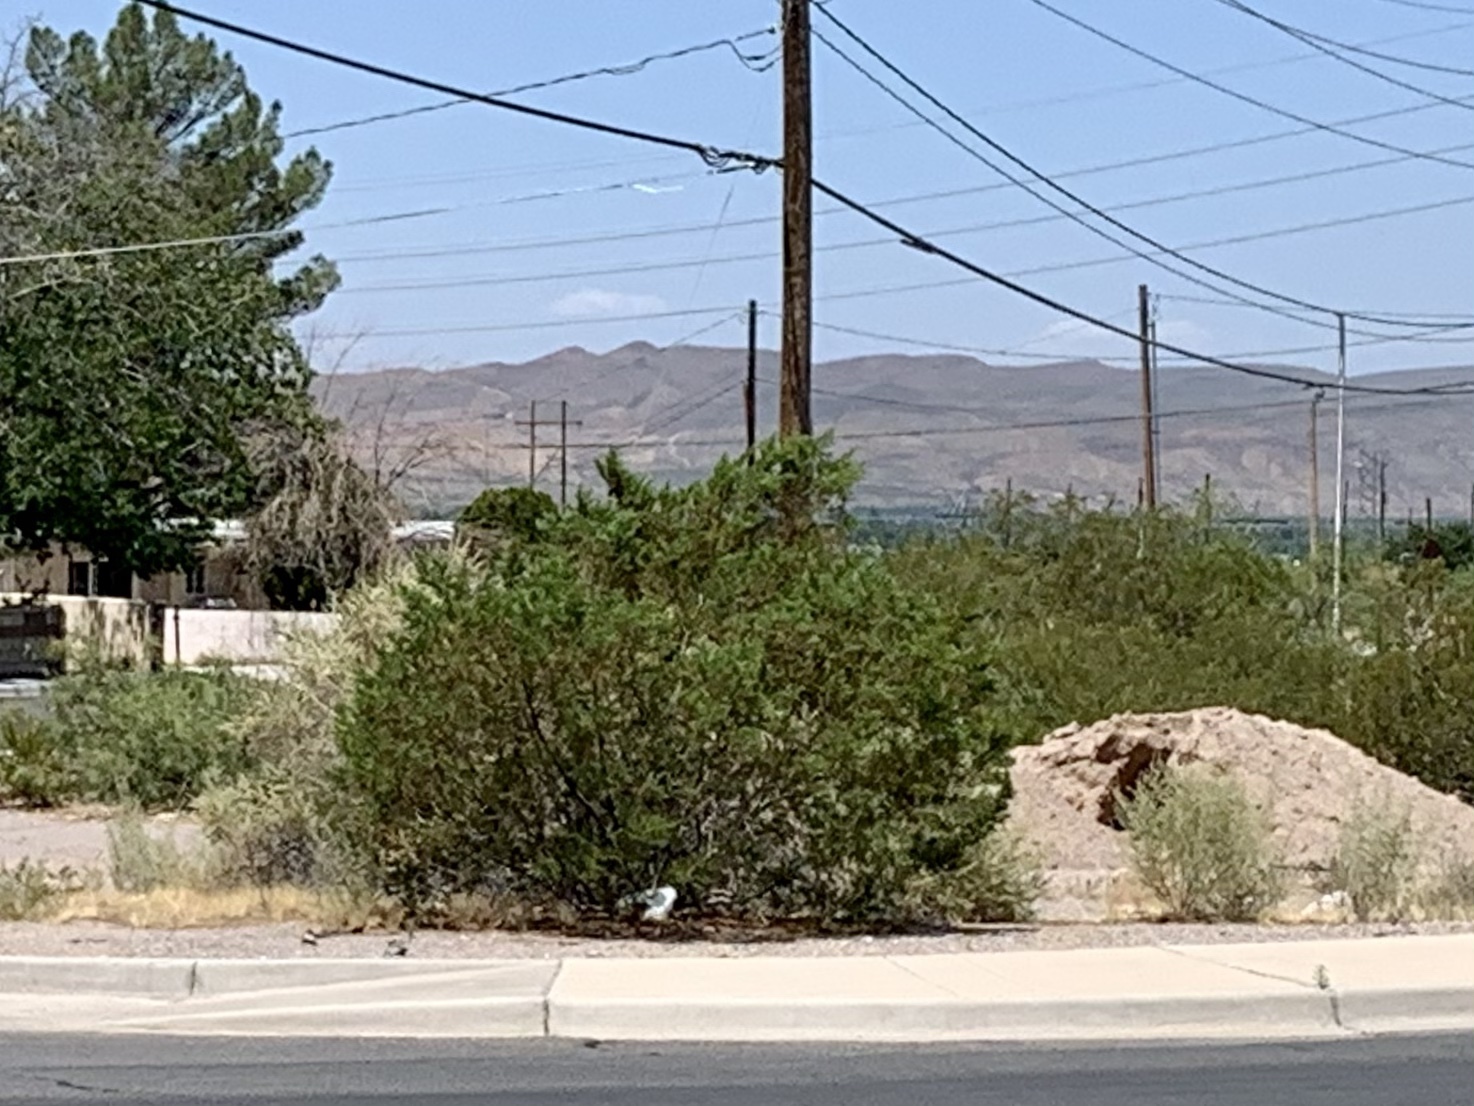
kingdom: Plantae
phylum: Tracheophyta
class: Magnoliopsida
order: Zygophyllales
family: Zygophyllaceae
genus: Larrea
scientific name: Larrea tridentata
